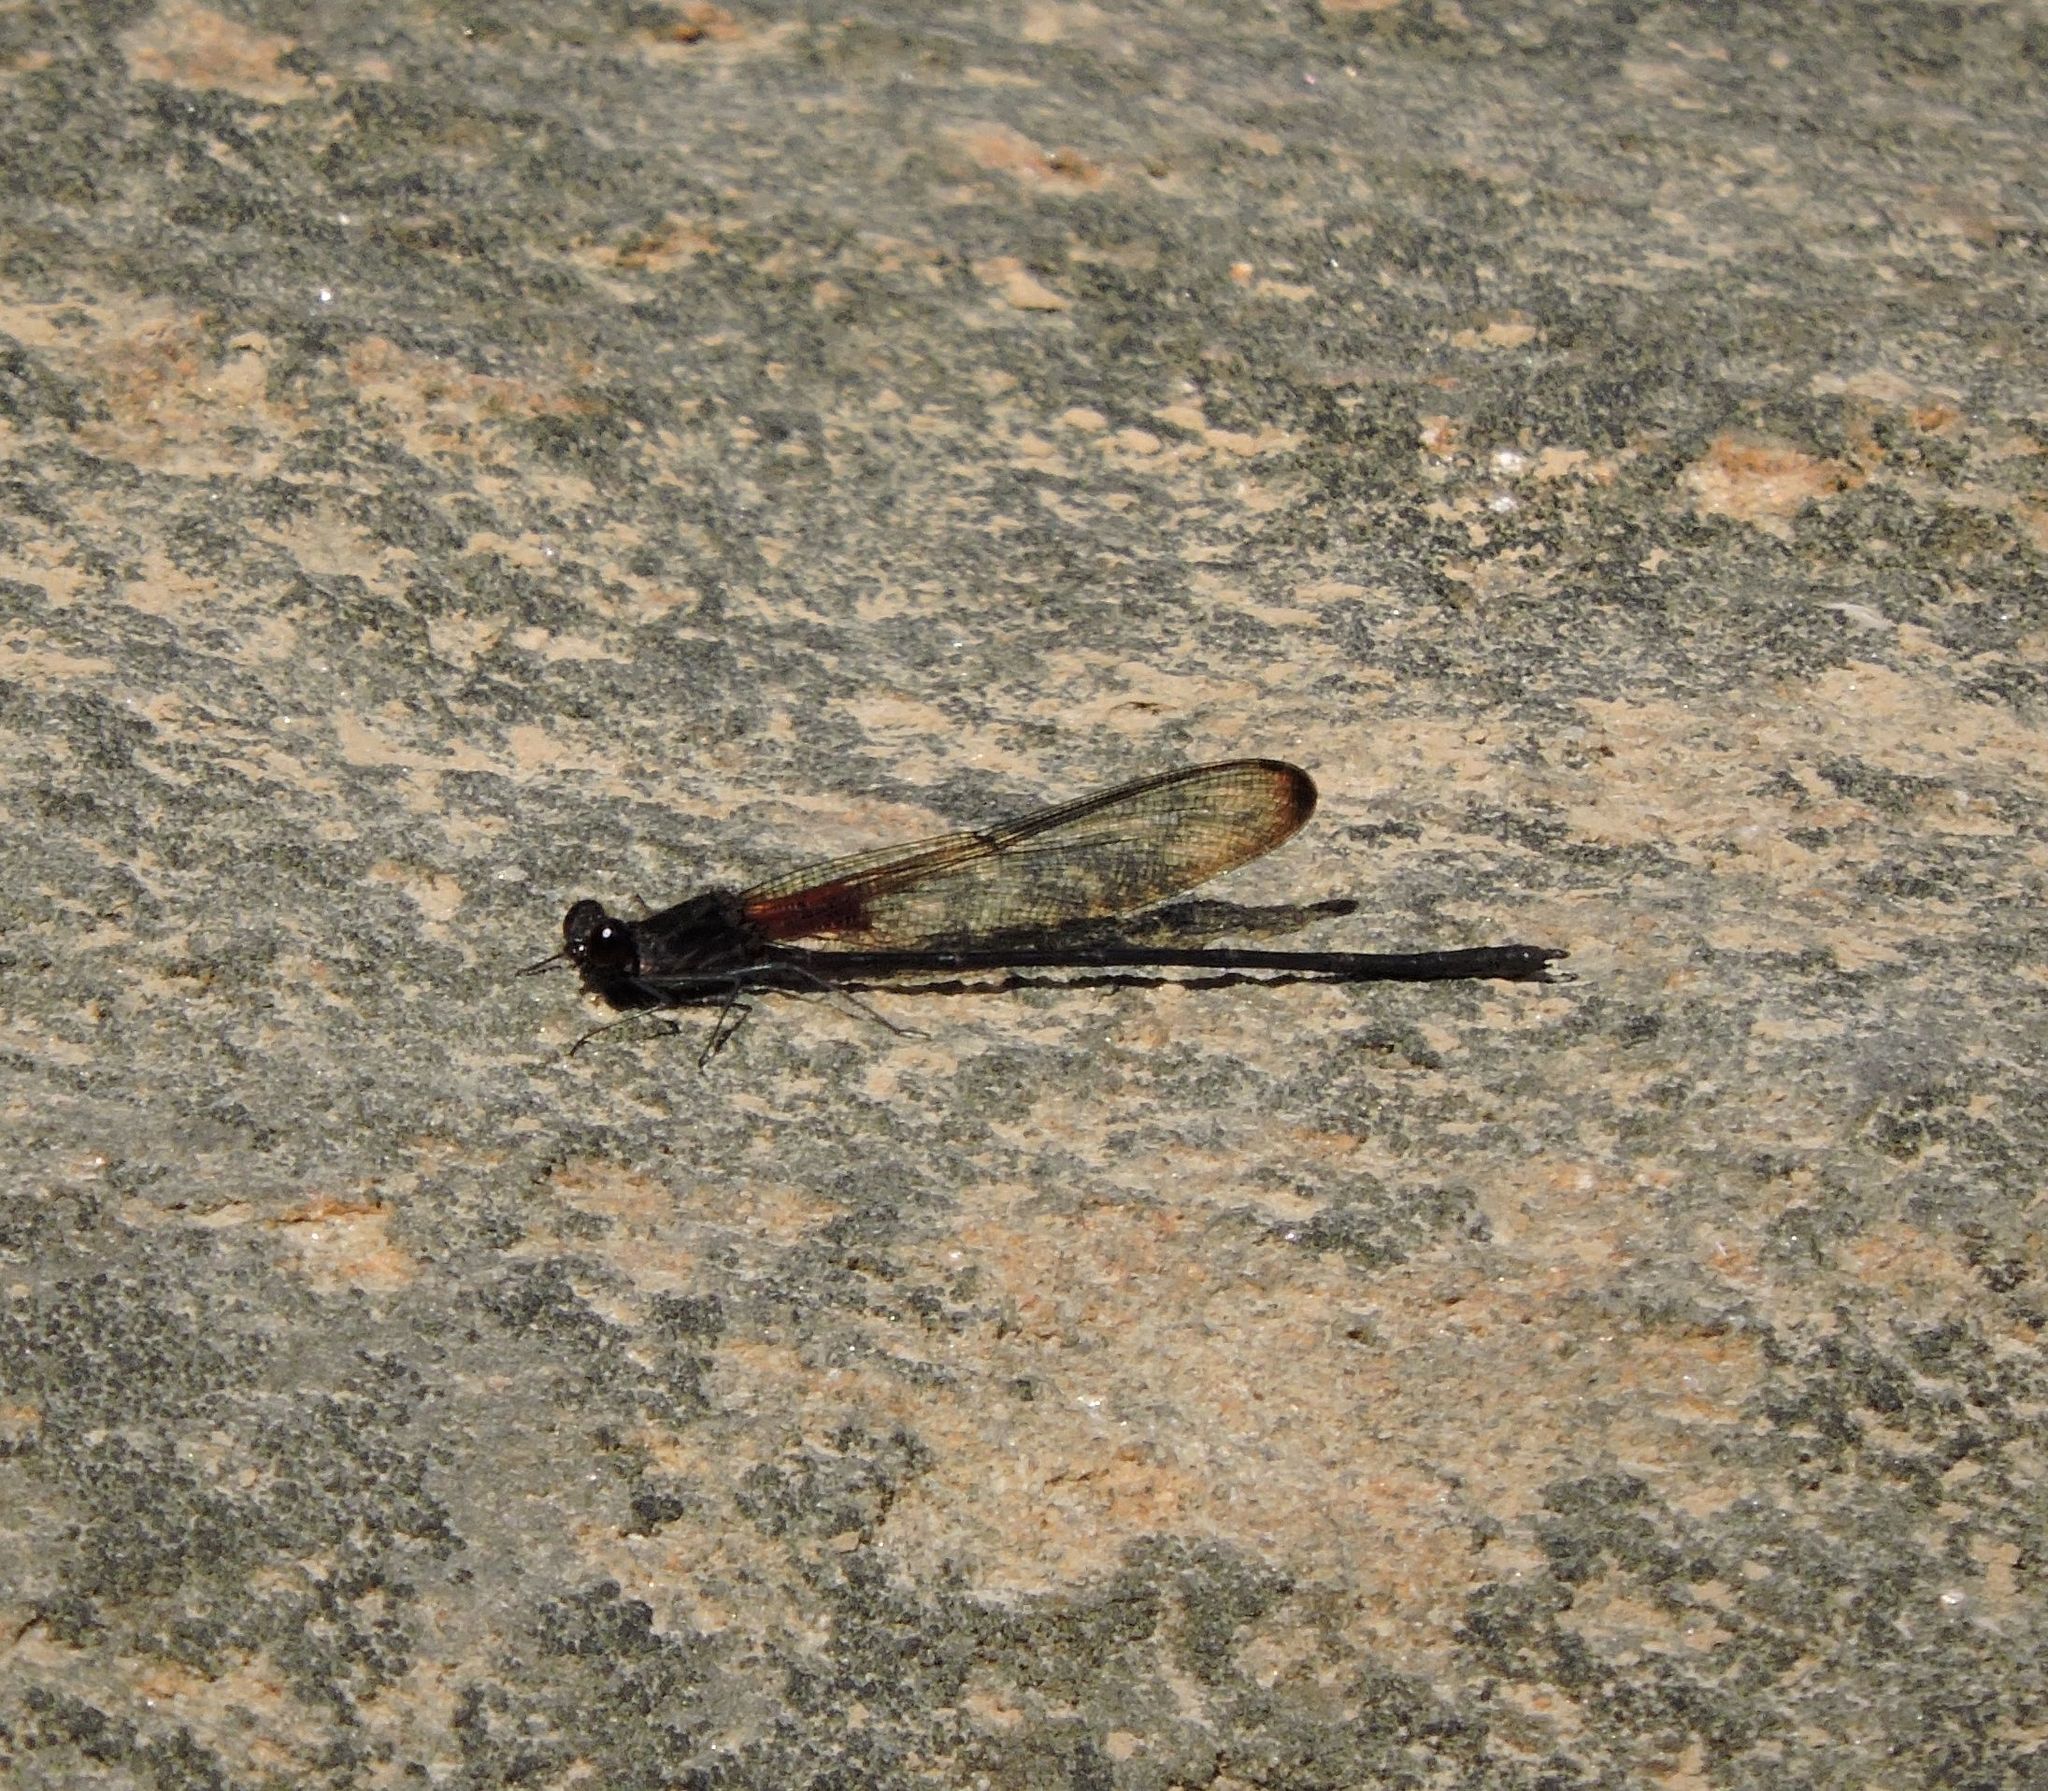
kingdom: Animalia
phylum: Arthropoda
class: Insecta
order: Odonata
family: Calopterygidae
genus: Hetaerina
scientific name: Hetaerina titia
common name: Smoky rubyspot
